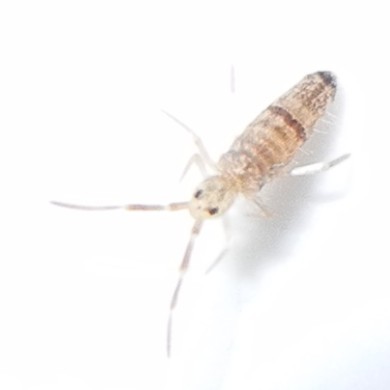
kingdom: Animalia
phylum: Arthropoda
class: Collembola
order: Entomobryomorpha
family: Entomobryidae
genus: Seira
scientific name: Seira musarum
